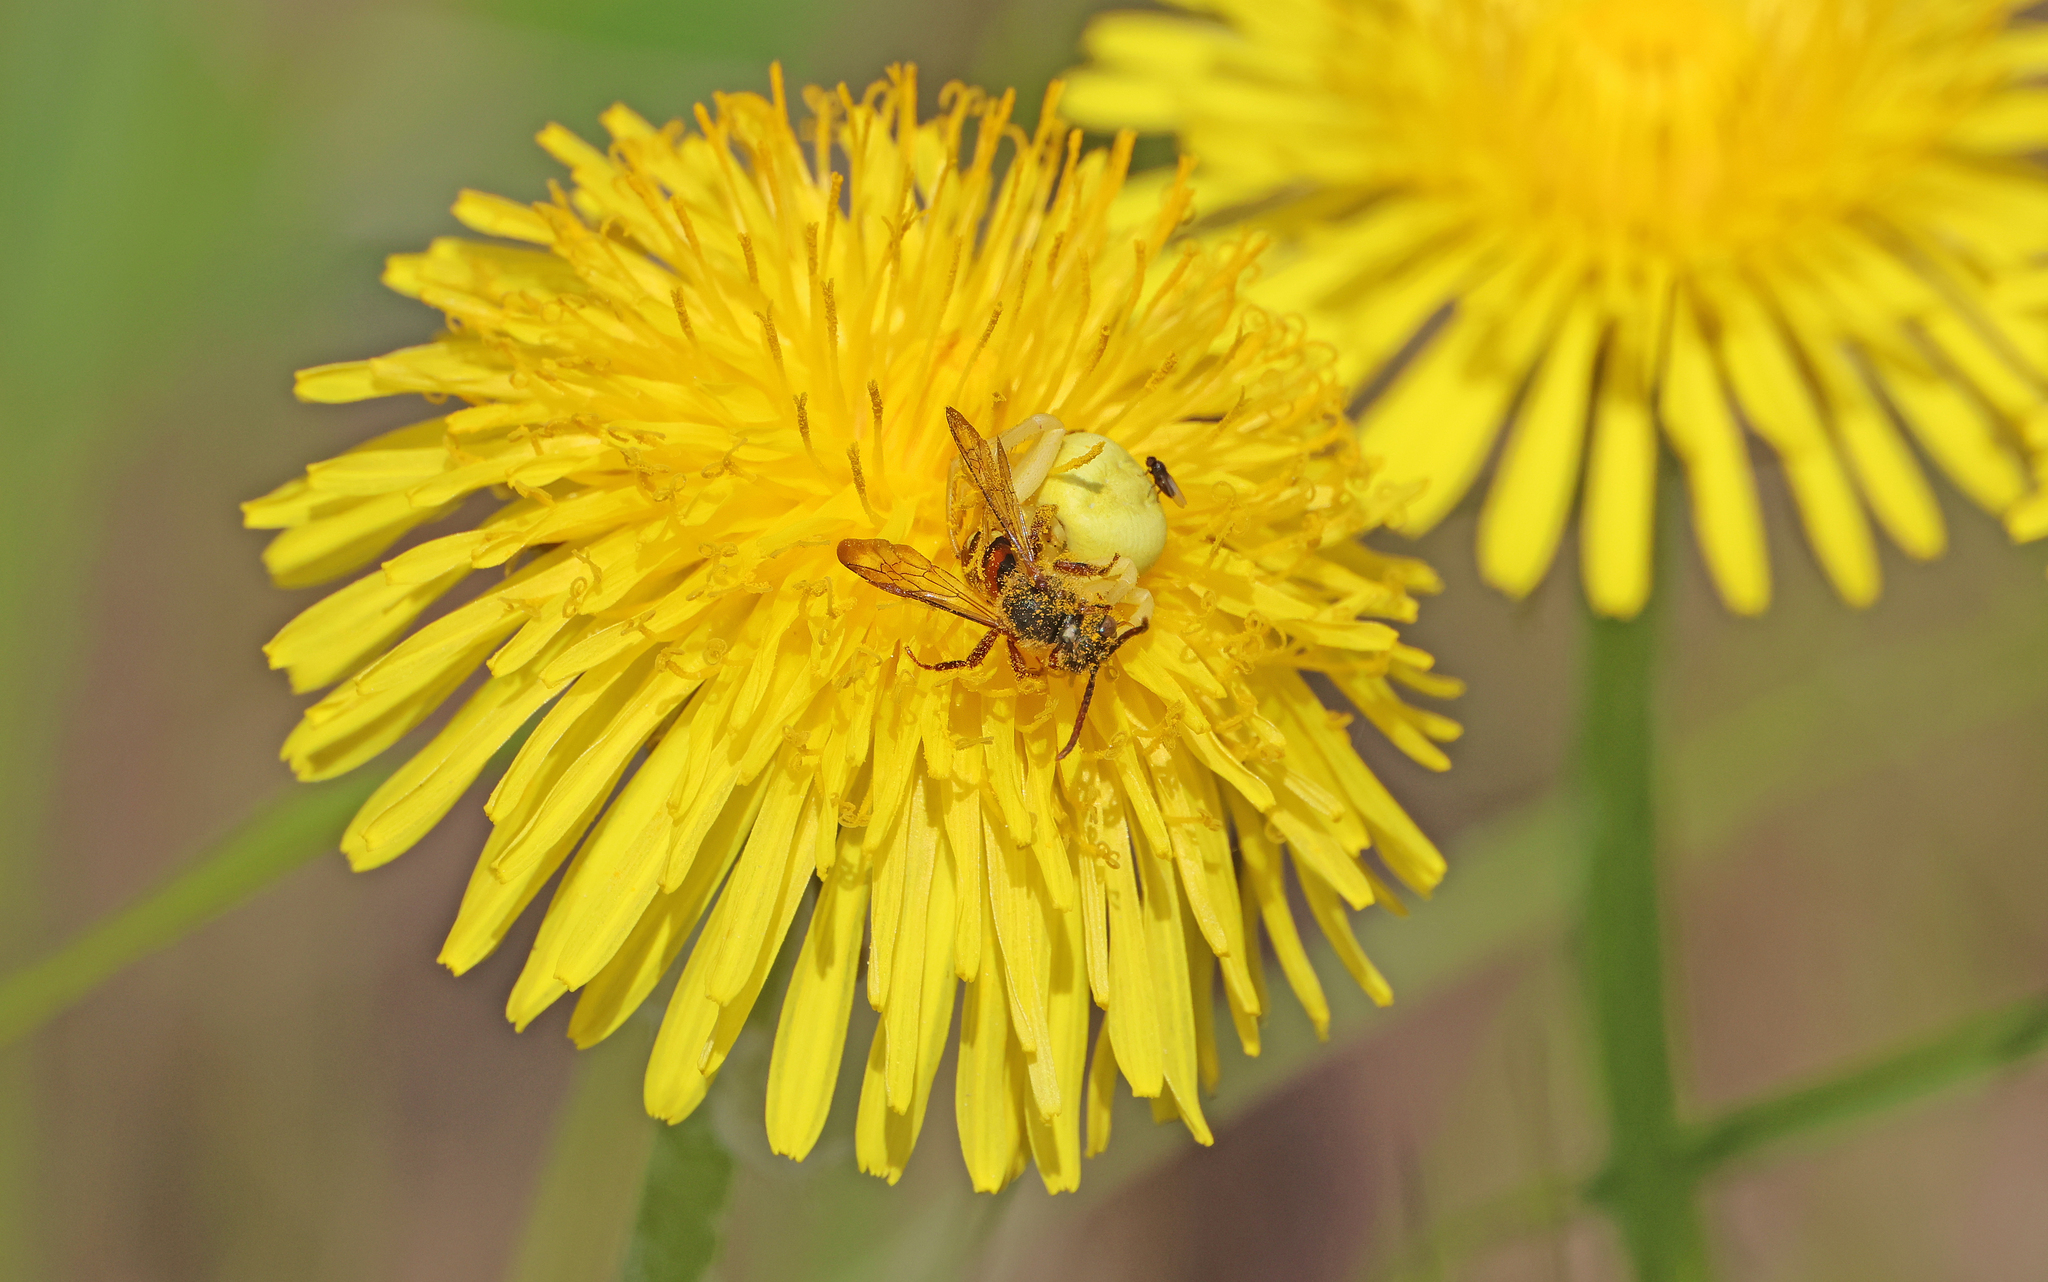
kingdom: Animalia
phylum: Arthropoda
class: Arachnida
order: Araneae
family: Thomisidae
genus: Misumena
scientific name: Misumena vatia
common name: Goldenrod crab spider
